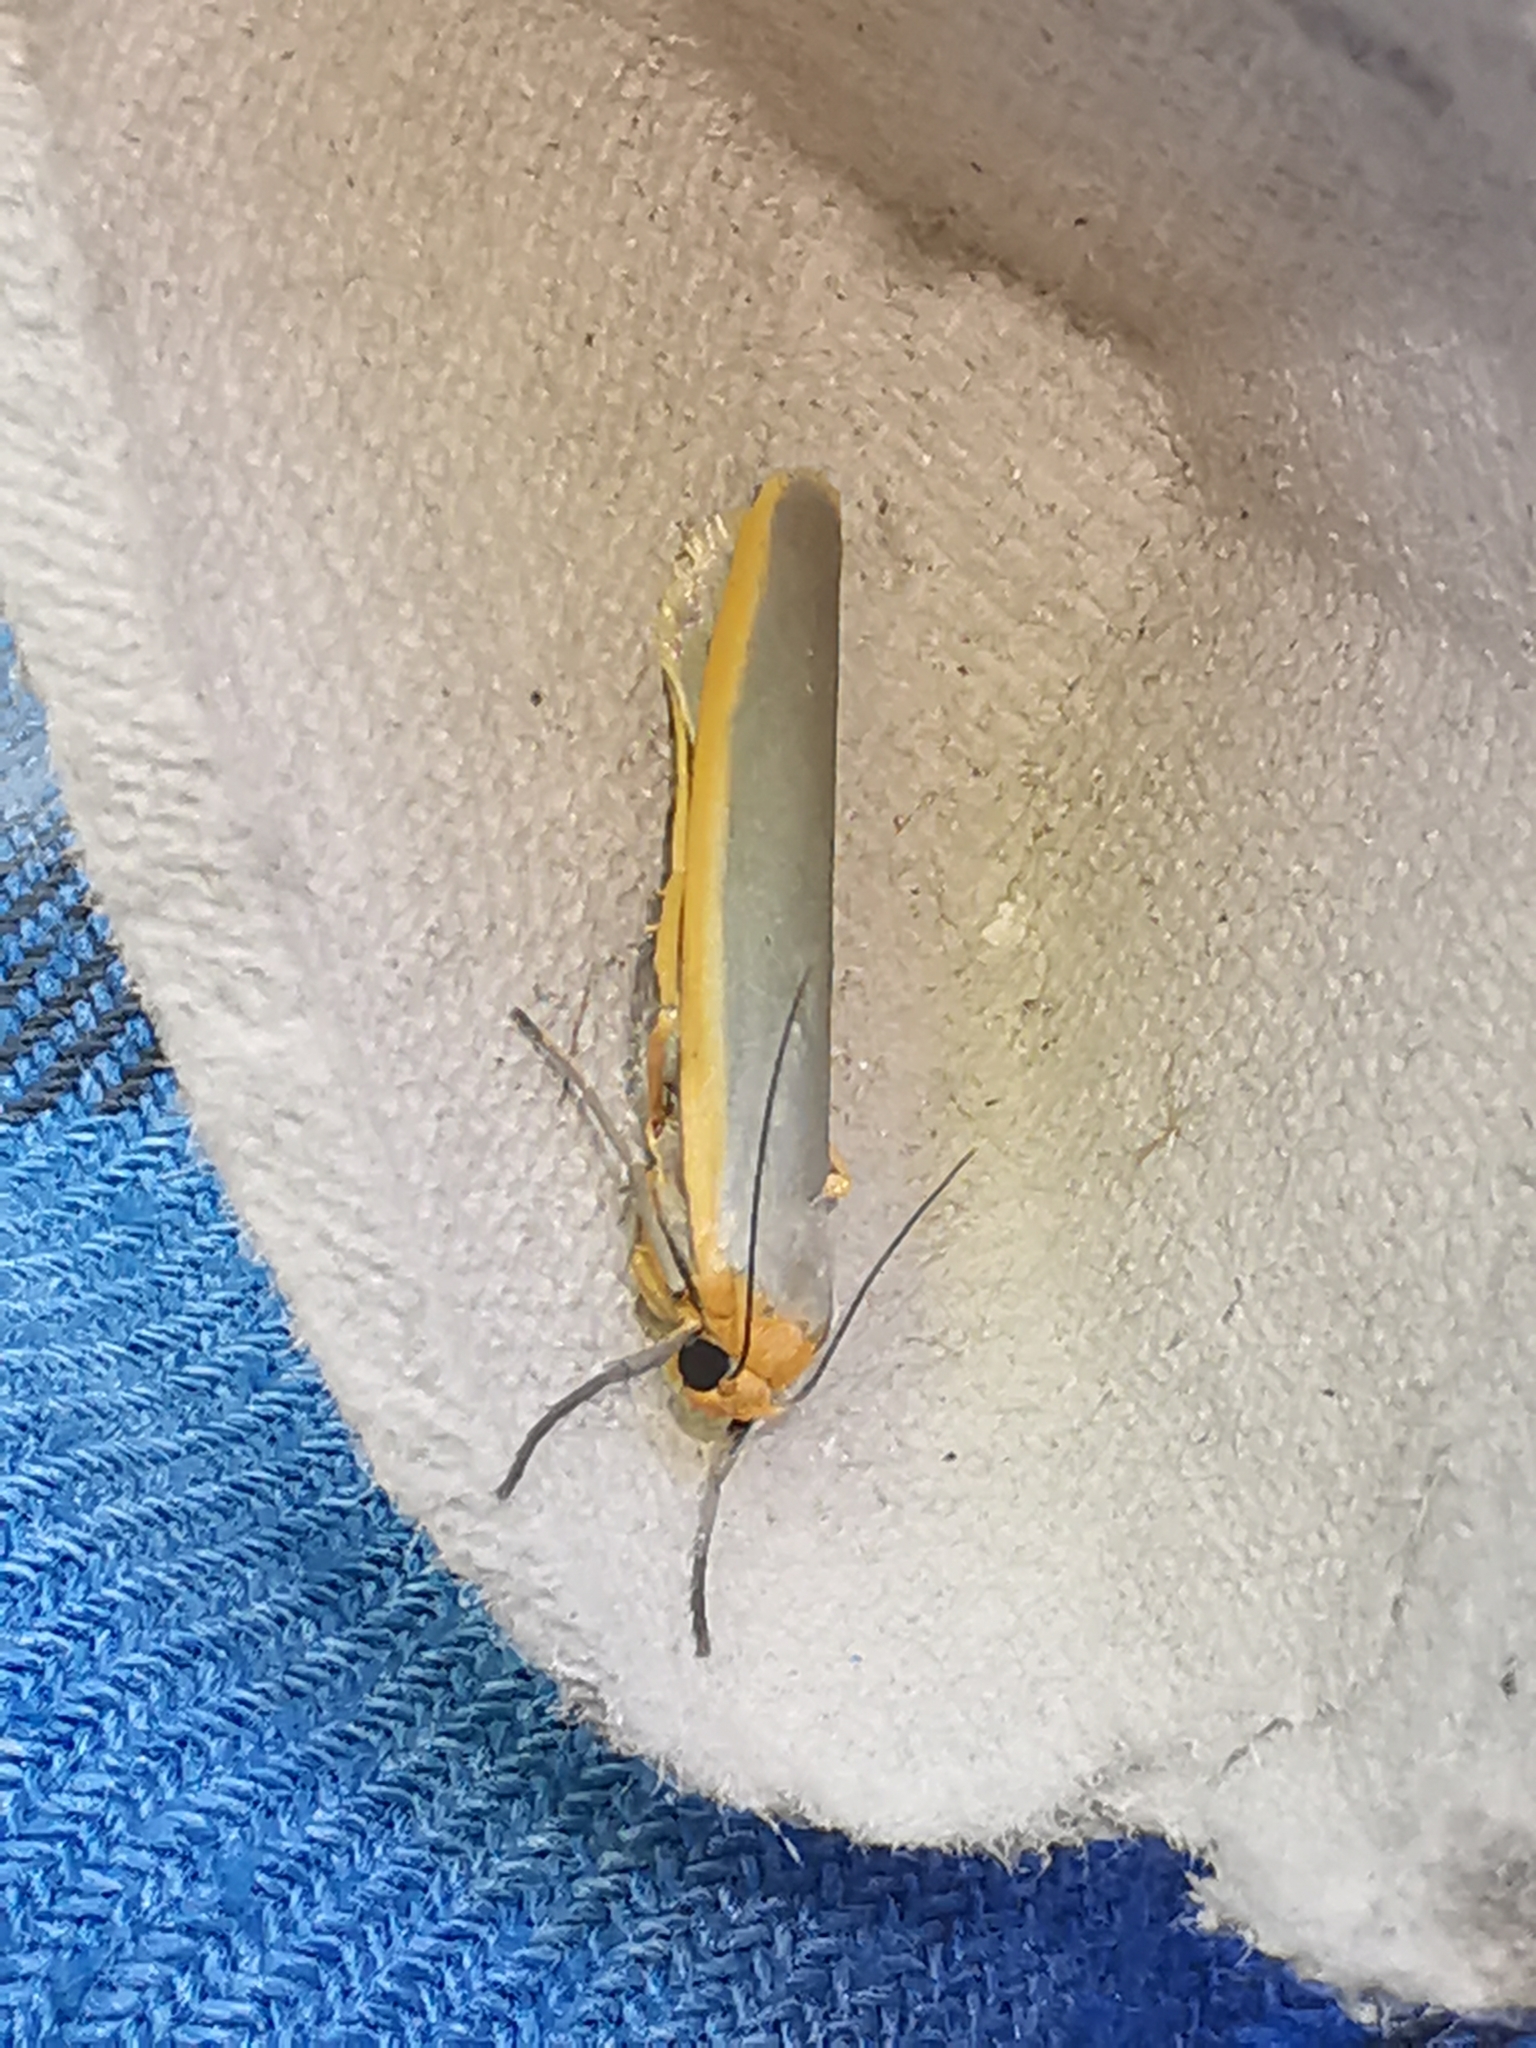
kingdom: Animalia
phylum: Arthropoda
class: Insecta
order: Lepidoptera
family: Erebidae
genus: Manulea
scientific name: Manulea complana
